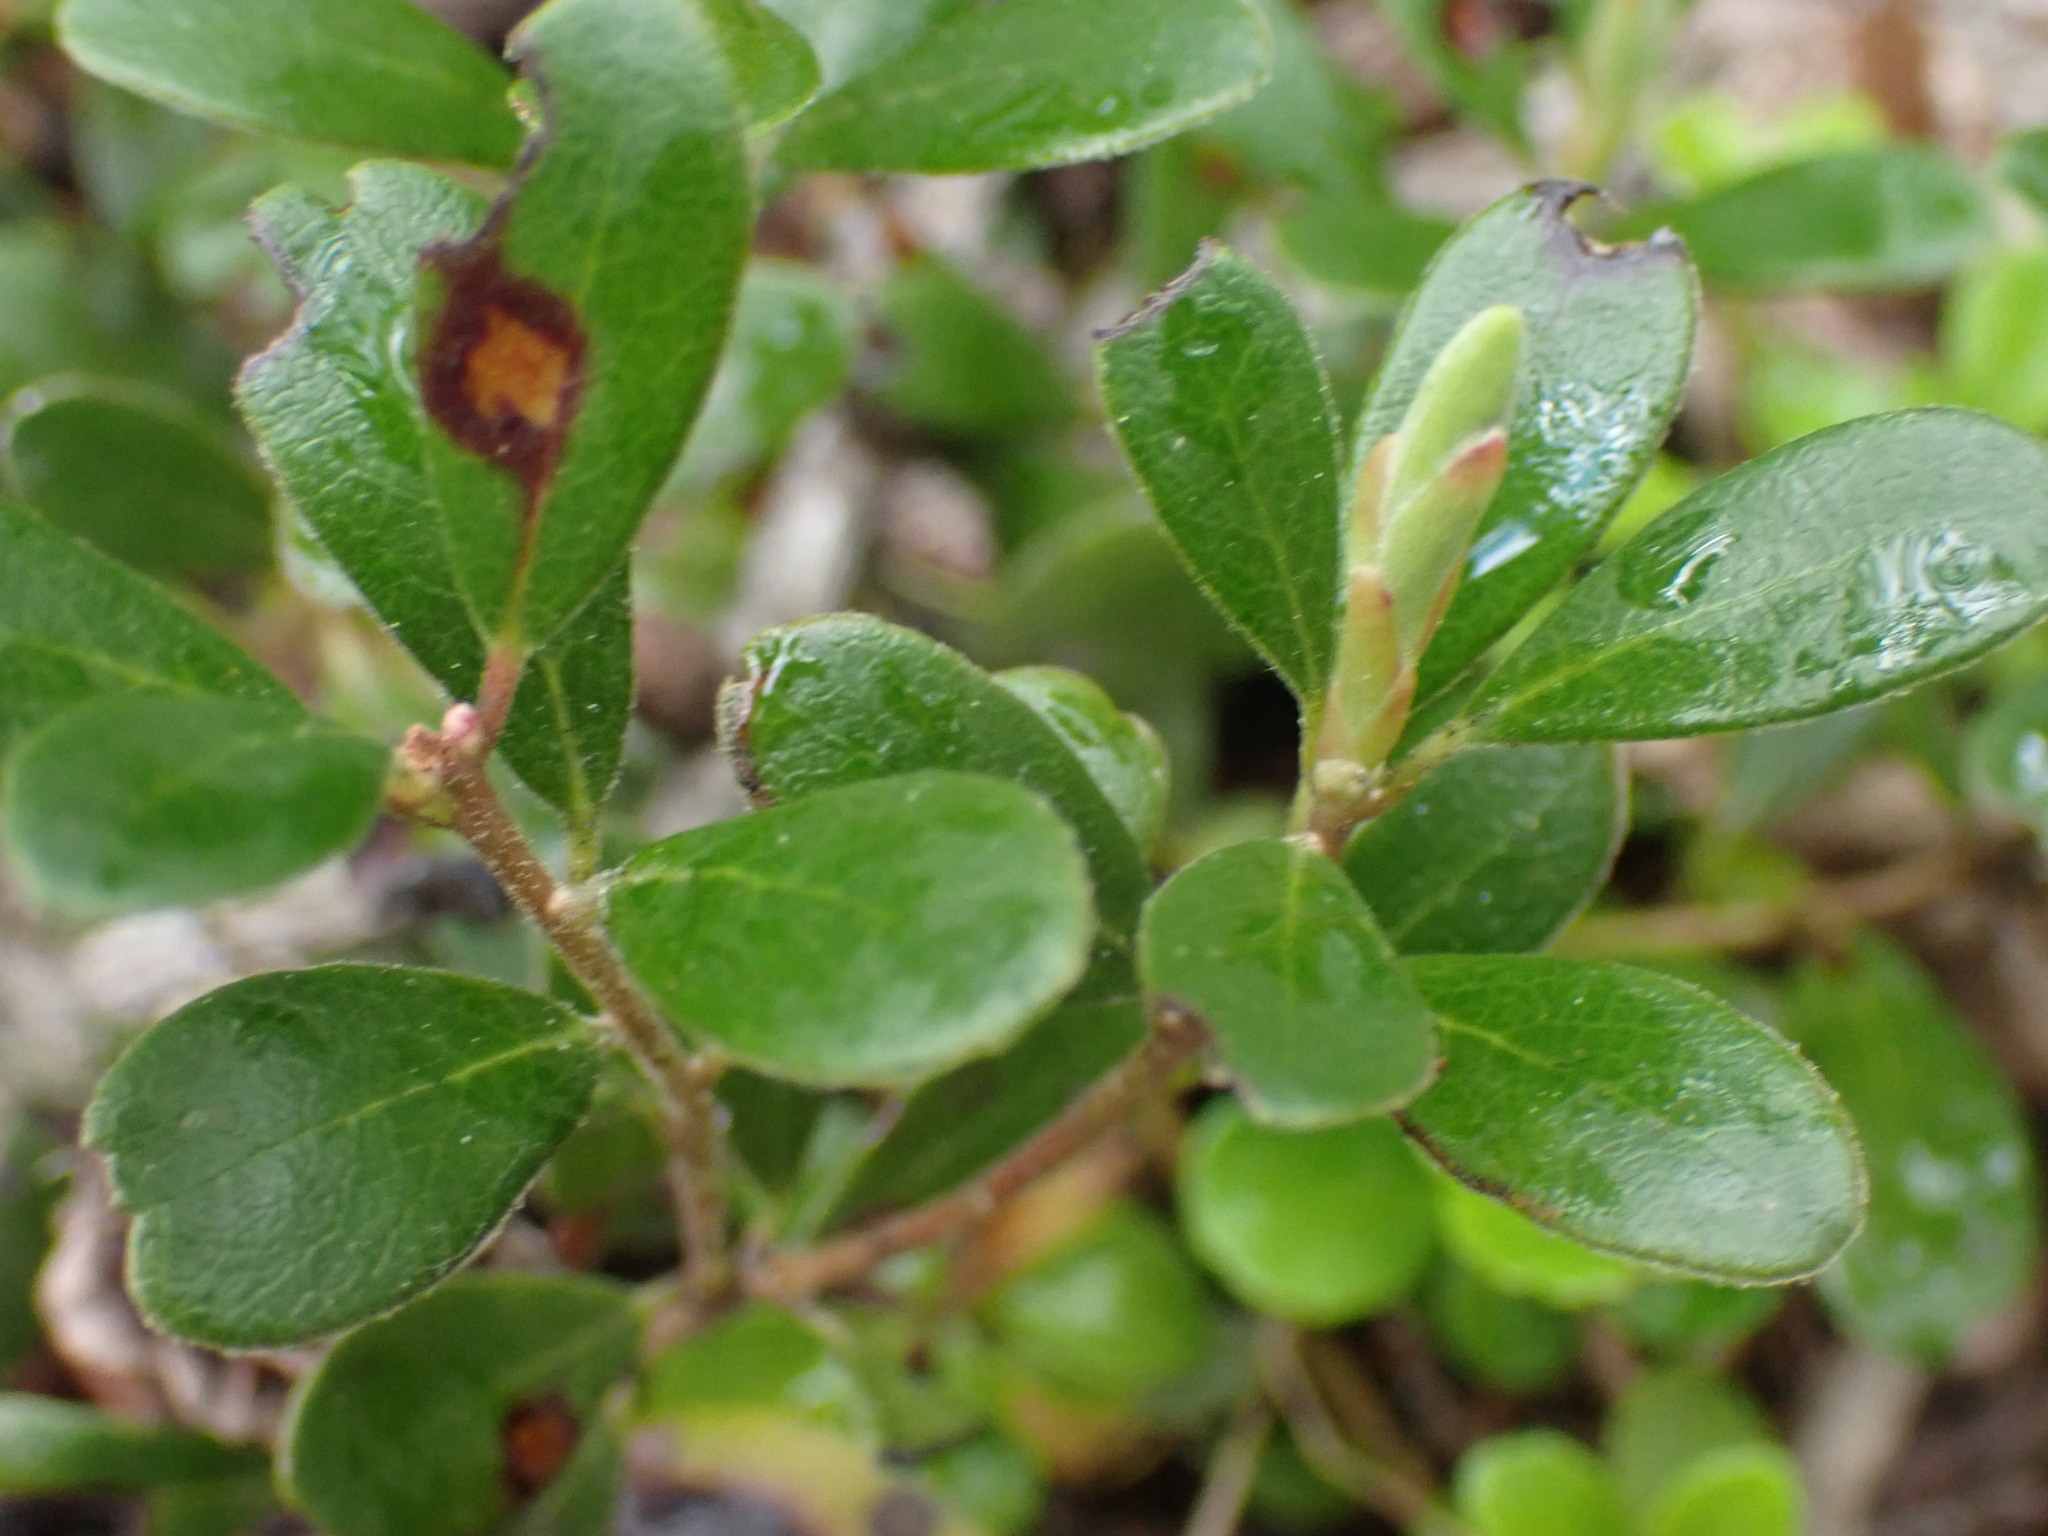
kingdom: Plantae
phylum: Tracheophyta
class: Magnoliopsida
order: Ericales
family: Ericaceae
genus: Arctostaphylos
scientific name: Arctostaphylos uva-ursi
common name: Bearberry
